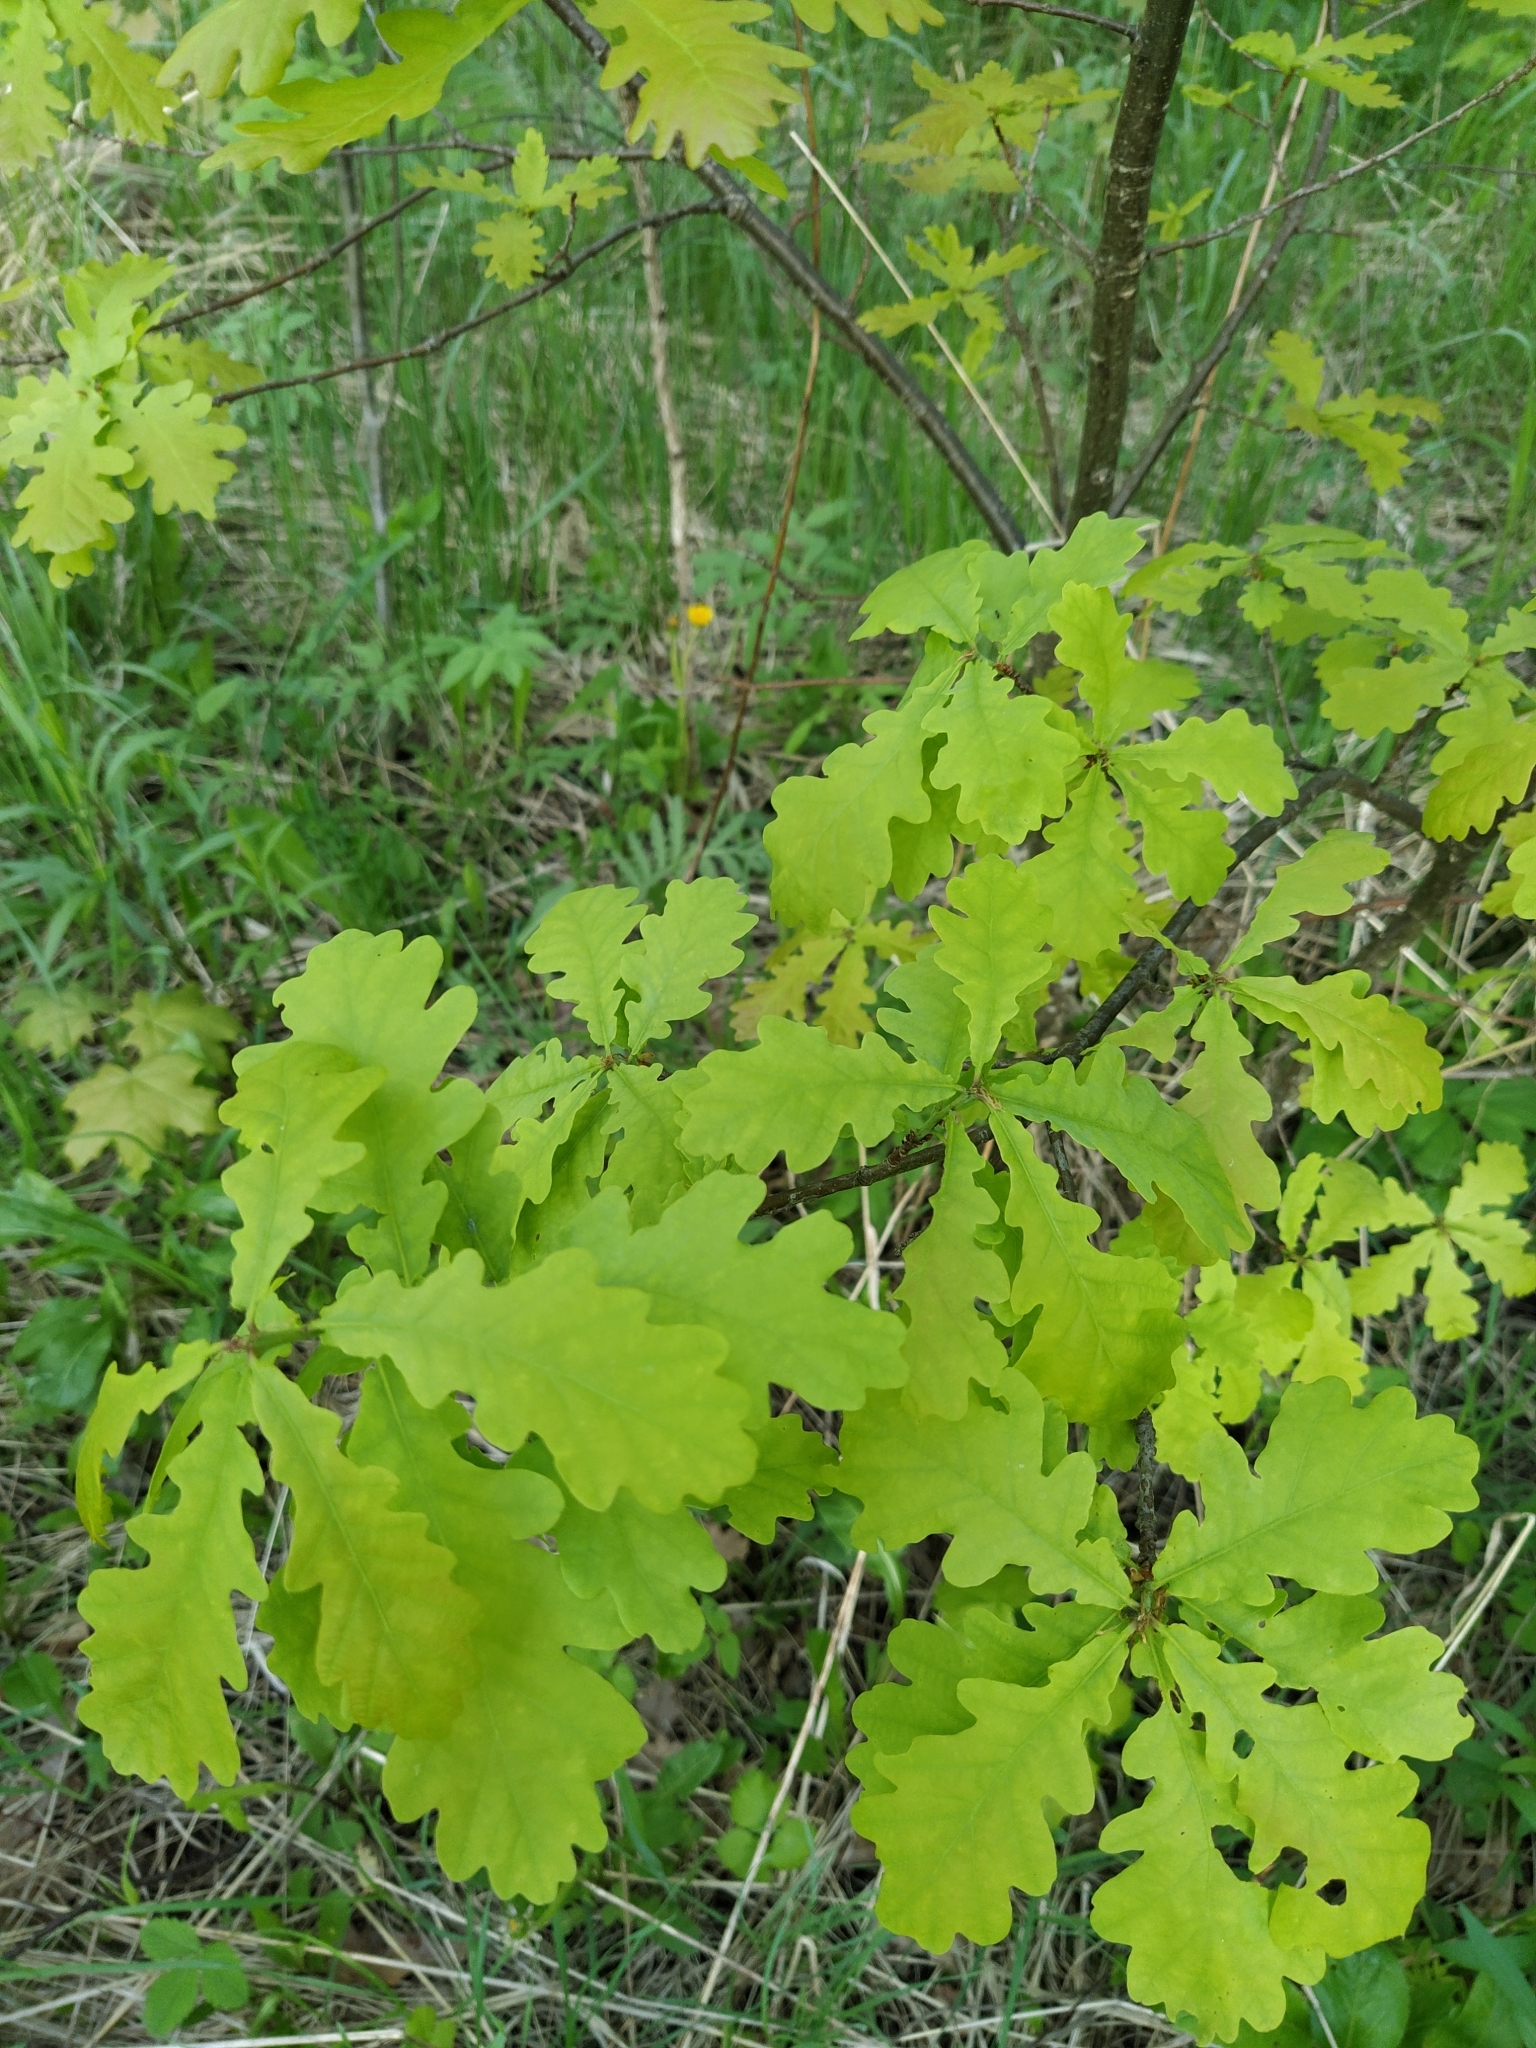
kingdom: Plantae
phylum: Tracheophyta
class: Magnoliopsida
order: Fagales
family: Fagaceae
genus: Quercus
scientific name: Quercus robur
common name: Pedunculate oak
